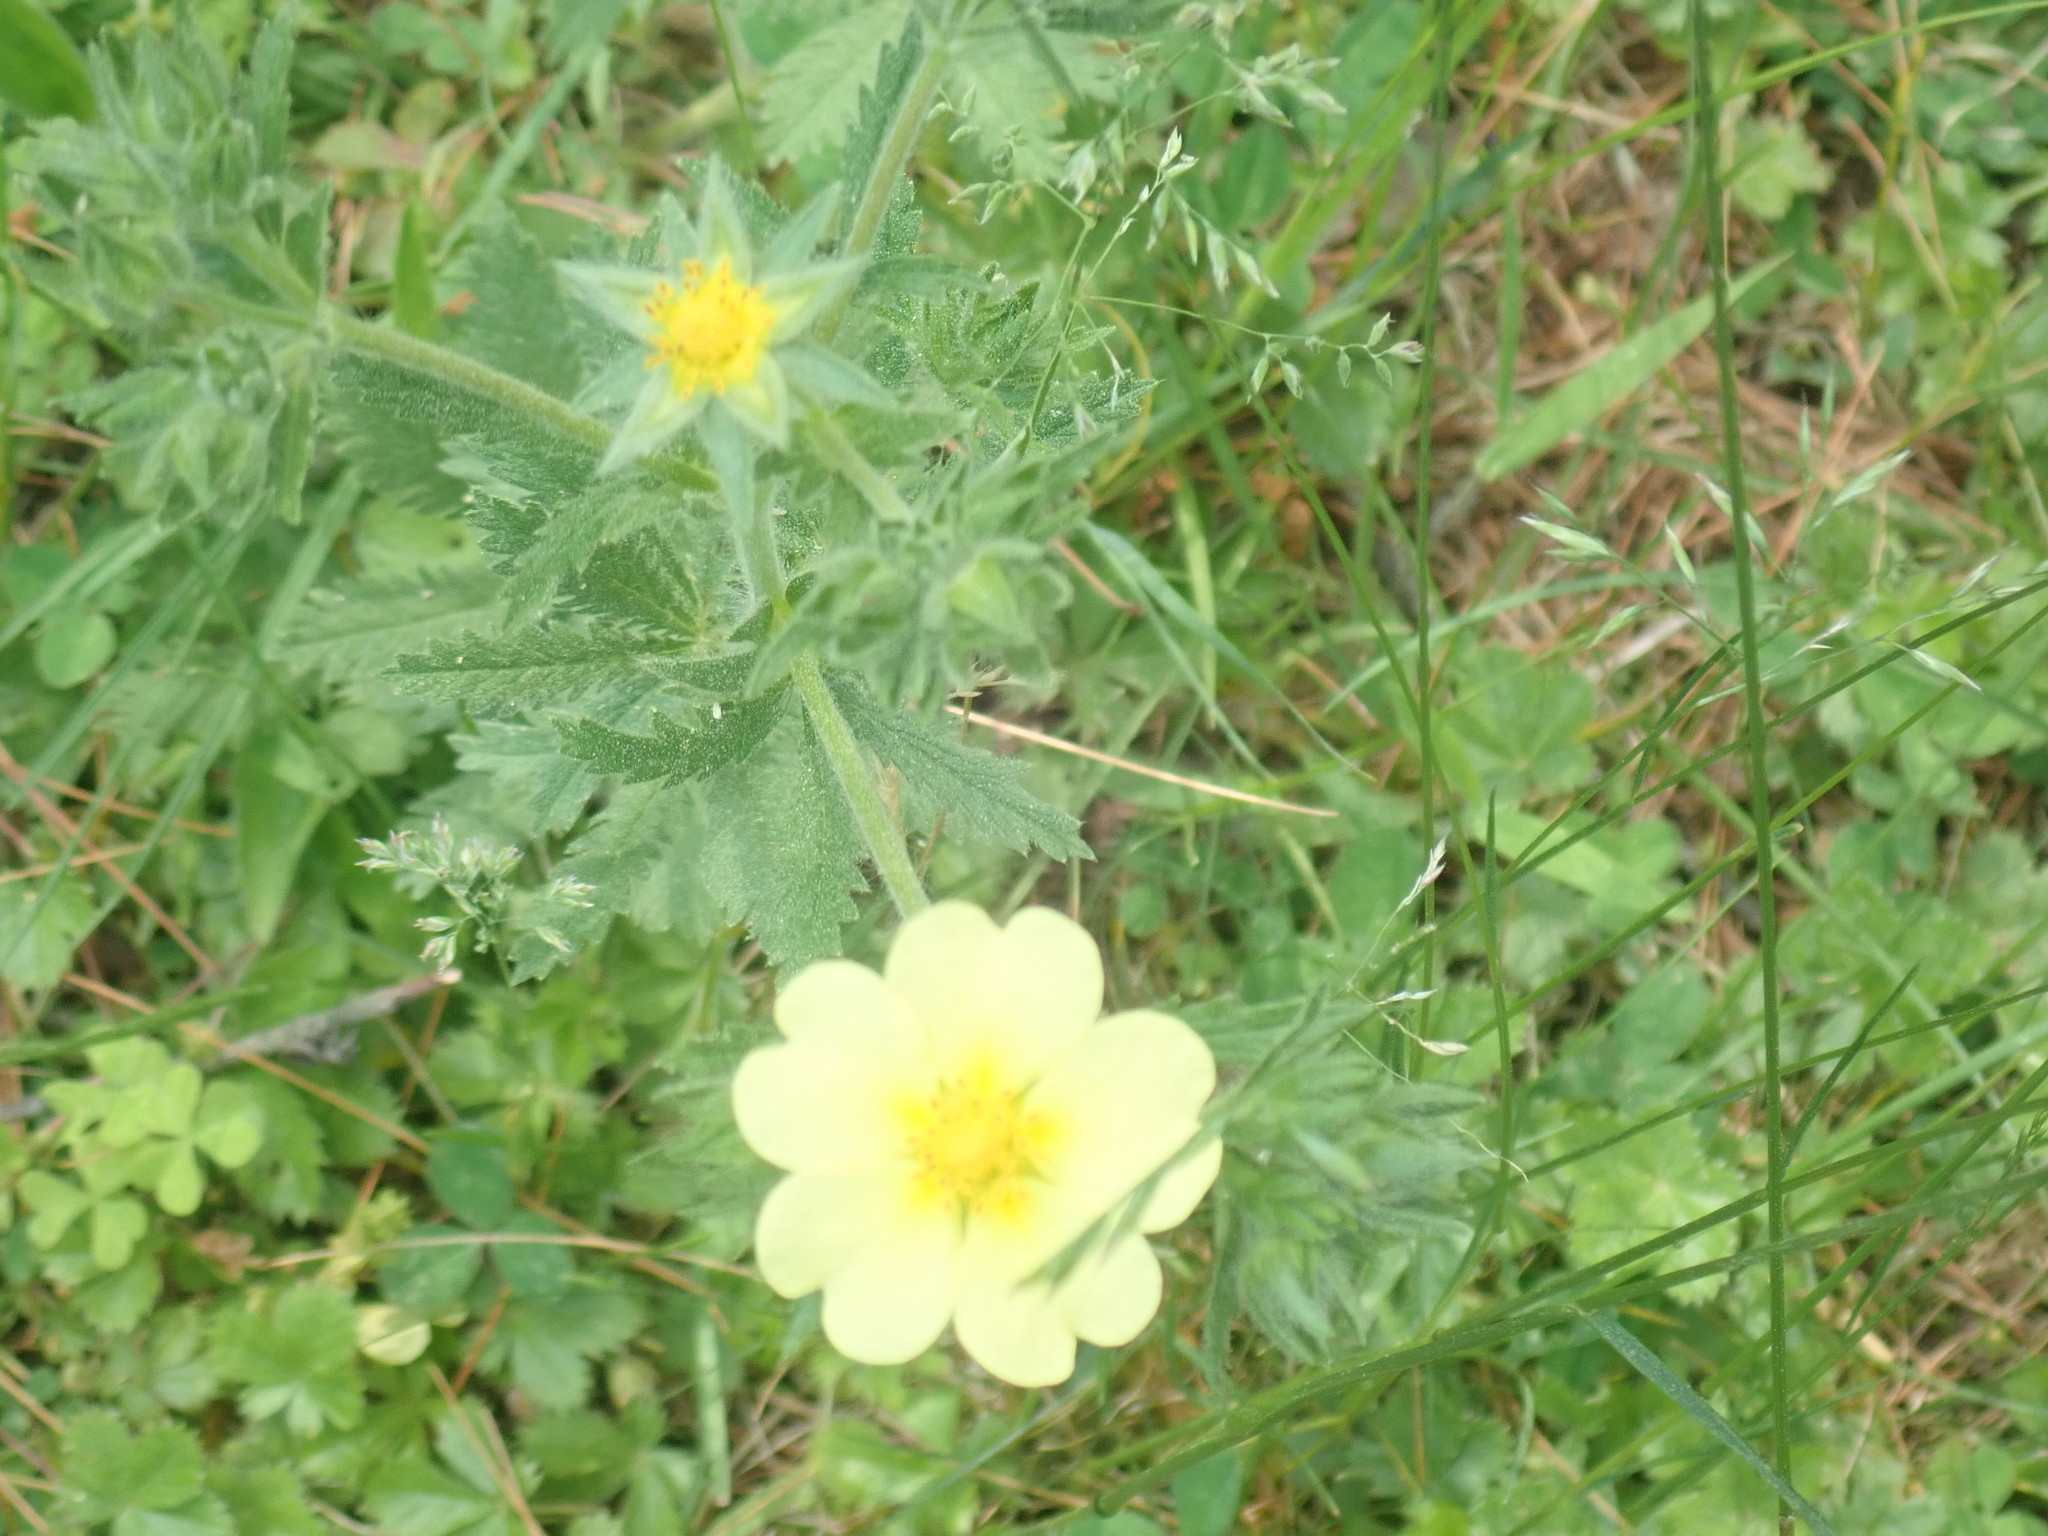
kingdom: Plantae
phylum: Tracheophyta
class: Magnoliopsida
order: Rosales
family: Rosaceae
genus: Potentilla
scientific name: Potentilla recta
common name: Sulphur cinquefoil
